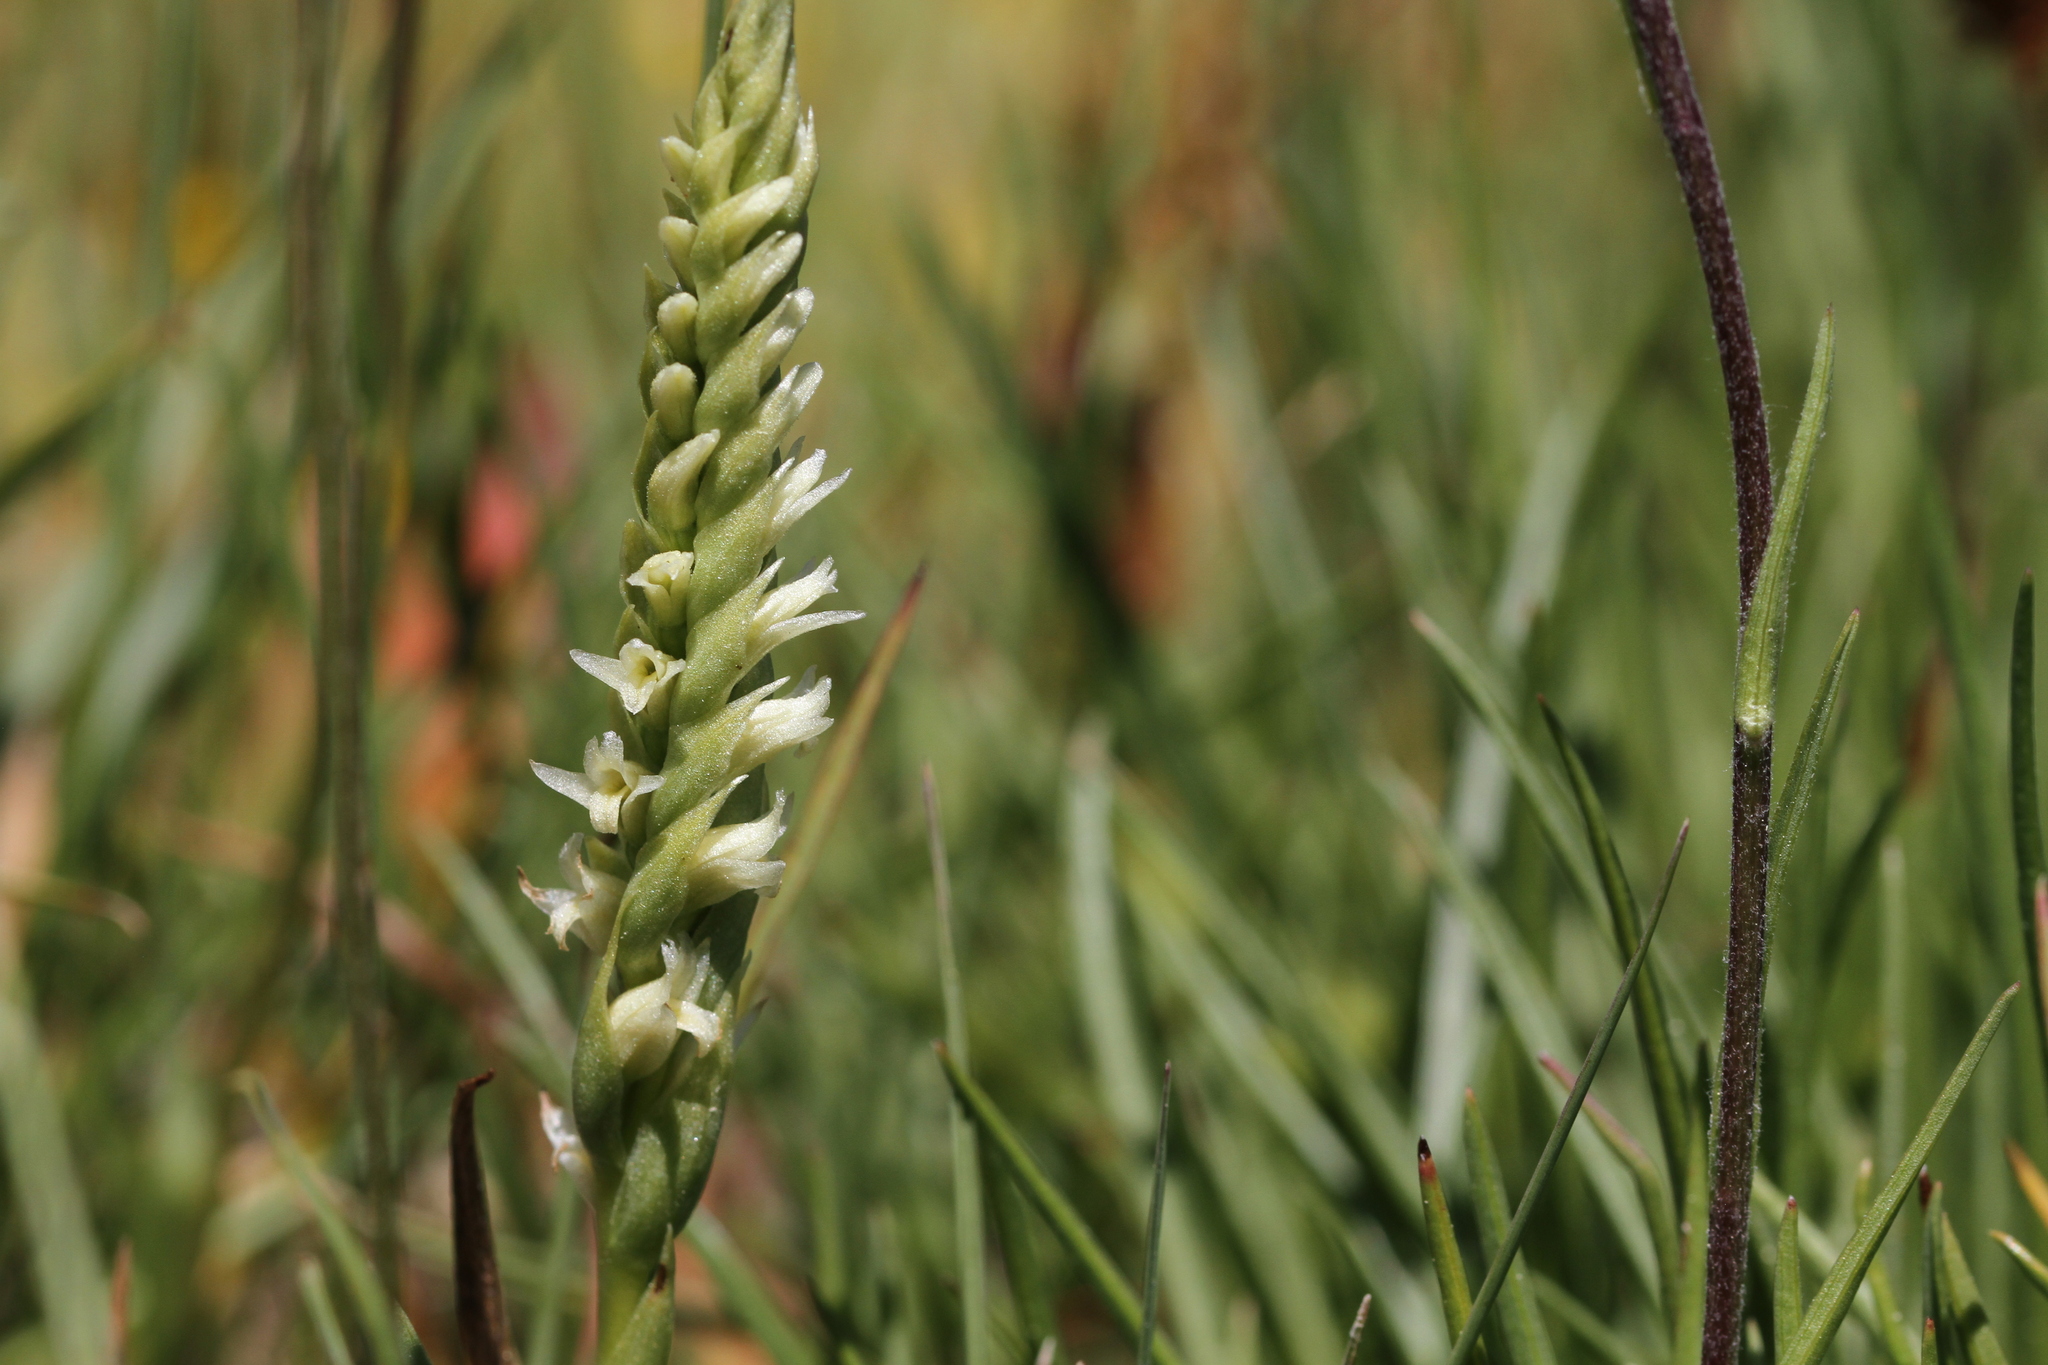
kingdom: Plantae
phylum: Tracheophyta
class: Liliopsida
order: Asparagales
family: Orchidaceae
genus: Spiranthes
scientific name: Spiranthes stellata
